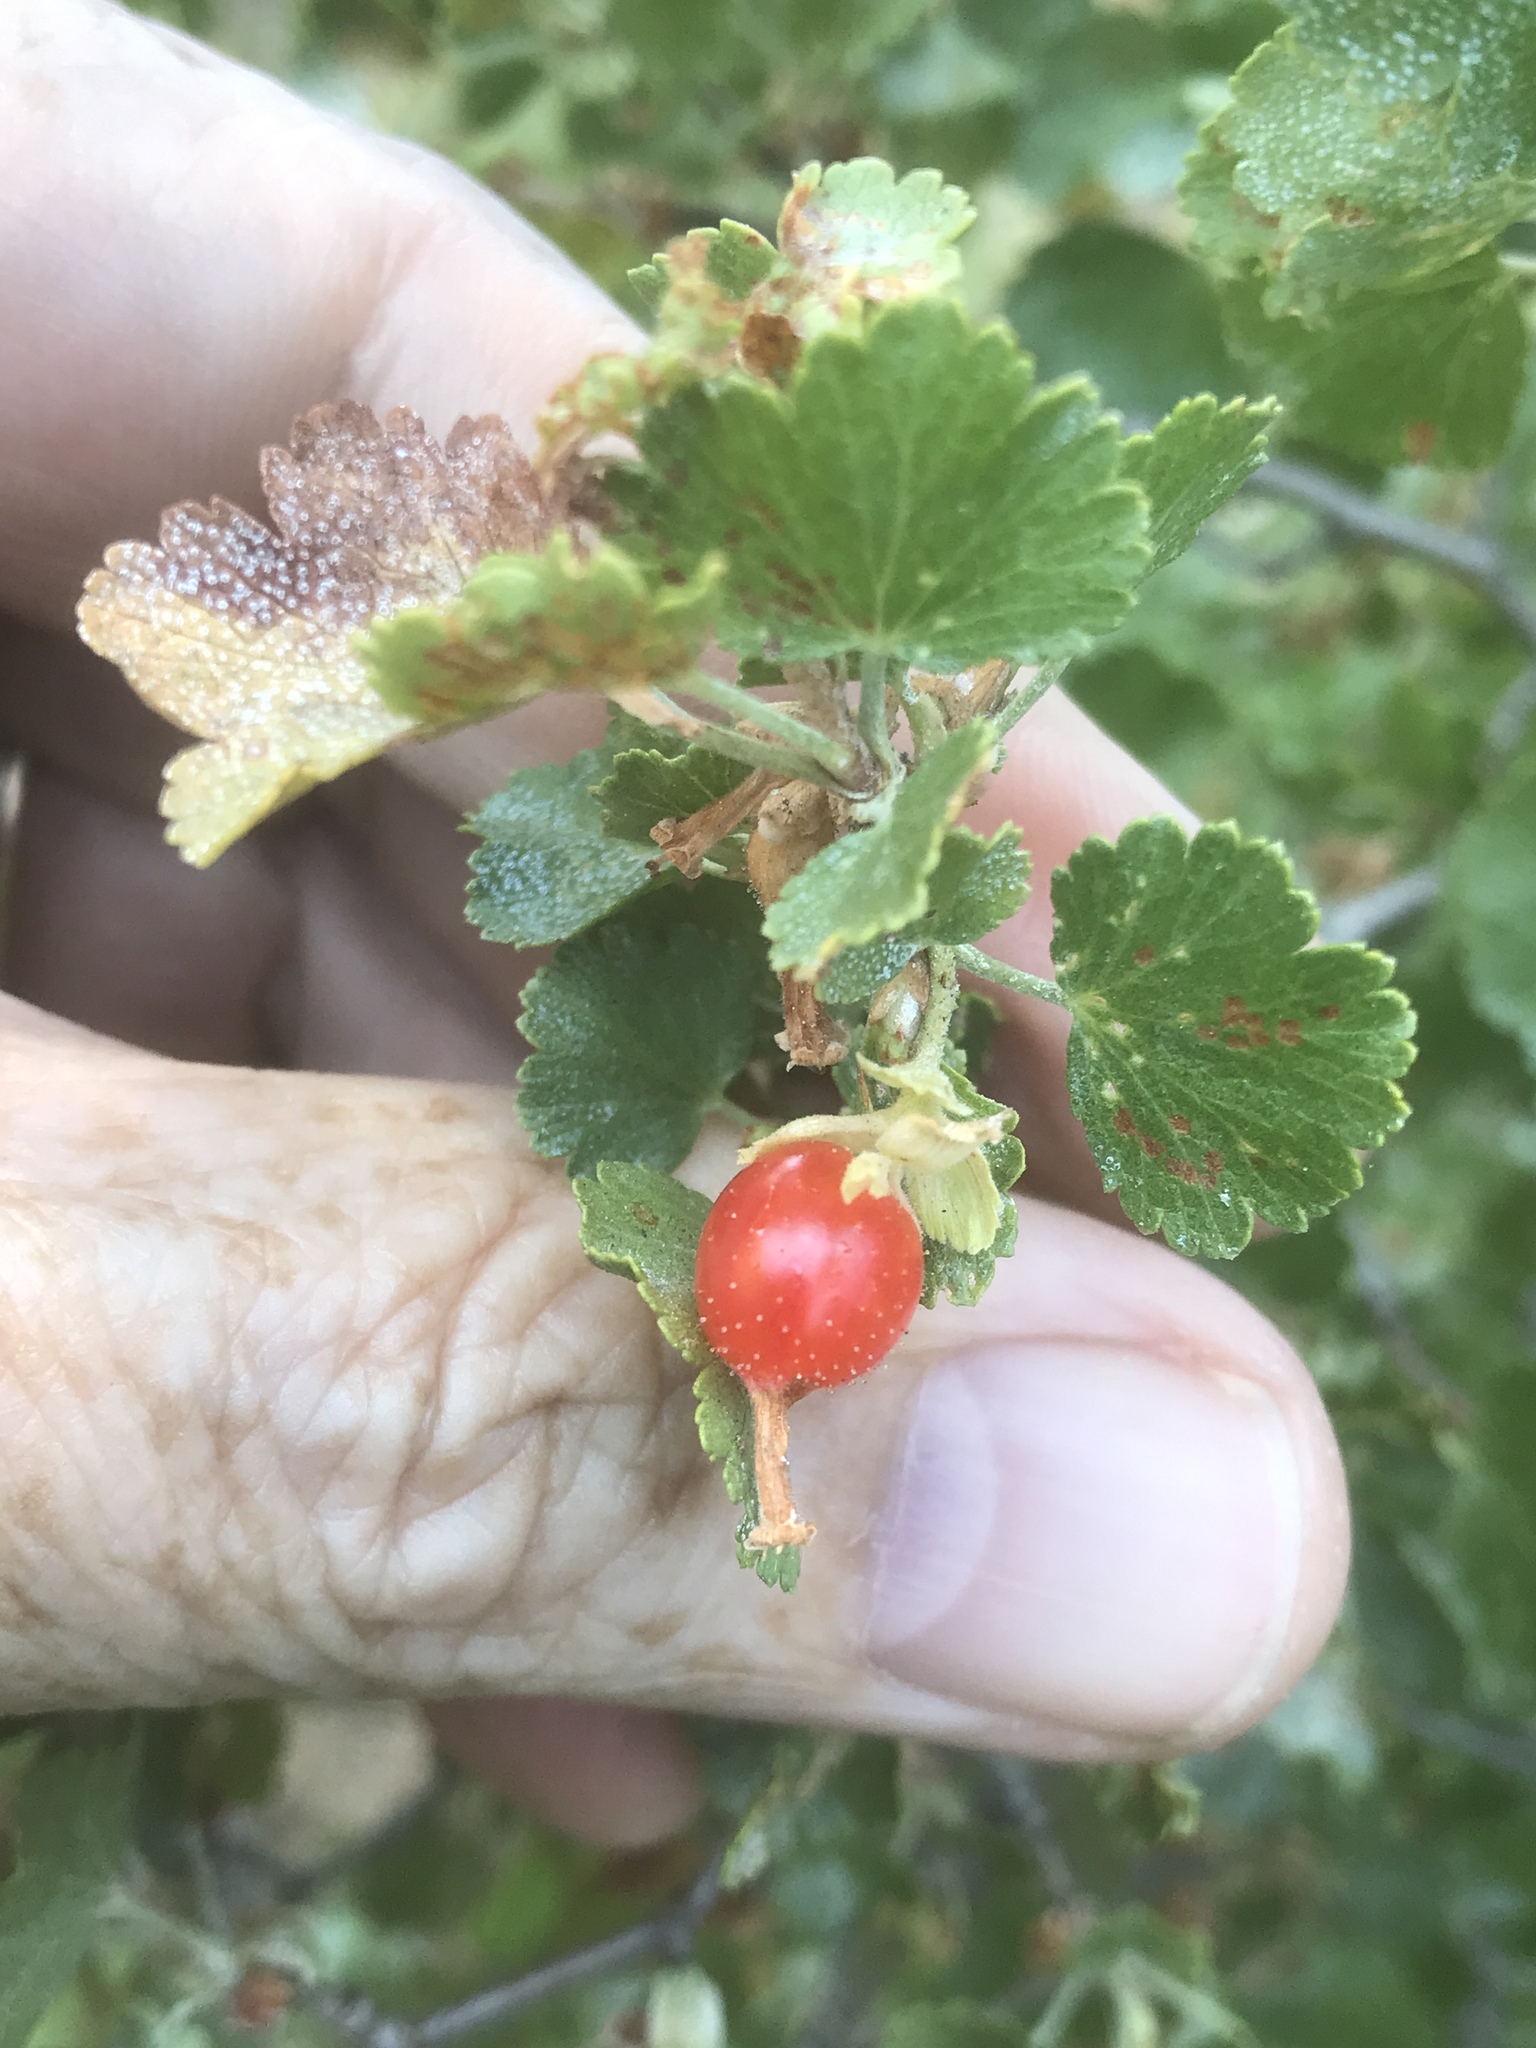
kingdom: Plantae
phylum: Tracheophyta
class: Magnoliopsida
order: Saxifragales
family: Grossulariaceae
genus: Ribes
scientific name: Ribes cereum
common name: Wax currant
